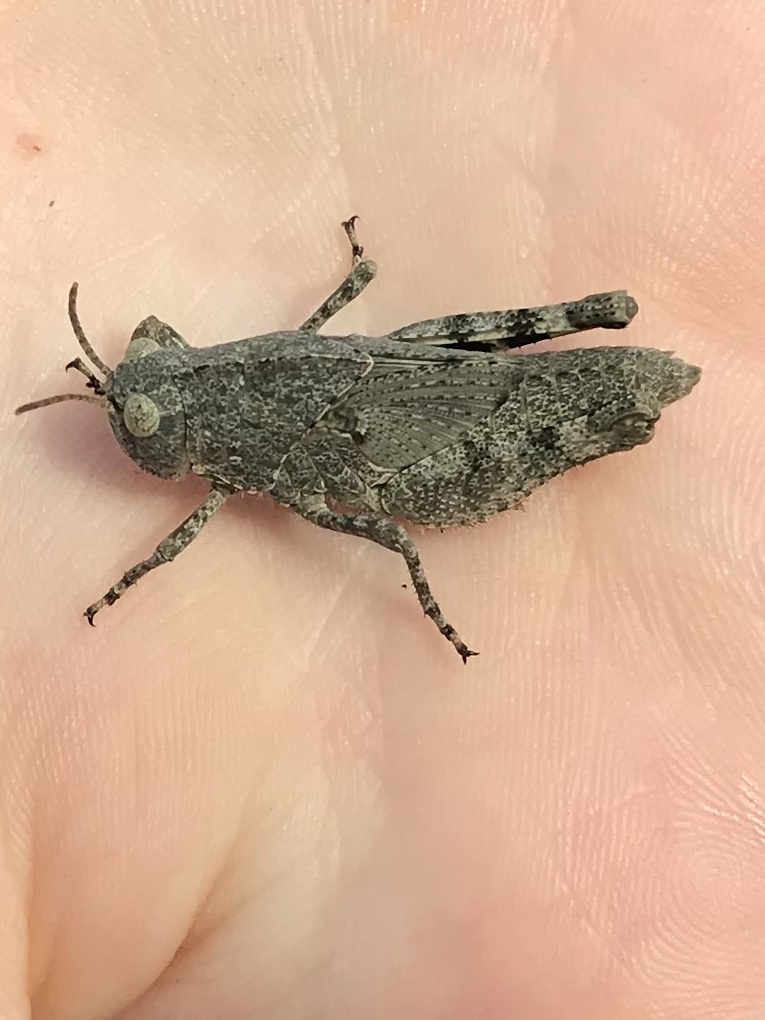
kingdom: Animalia
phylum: Arthropoda
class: Insecta
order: Orthoptera
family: Acrididae
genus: Dissosteira
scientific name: Dissosteira carolina
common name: Carolina grasshopper
